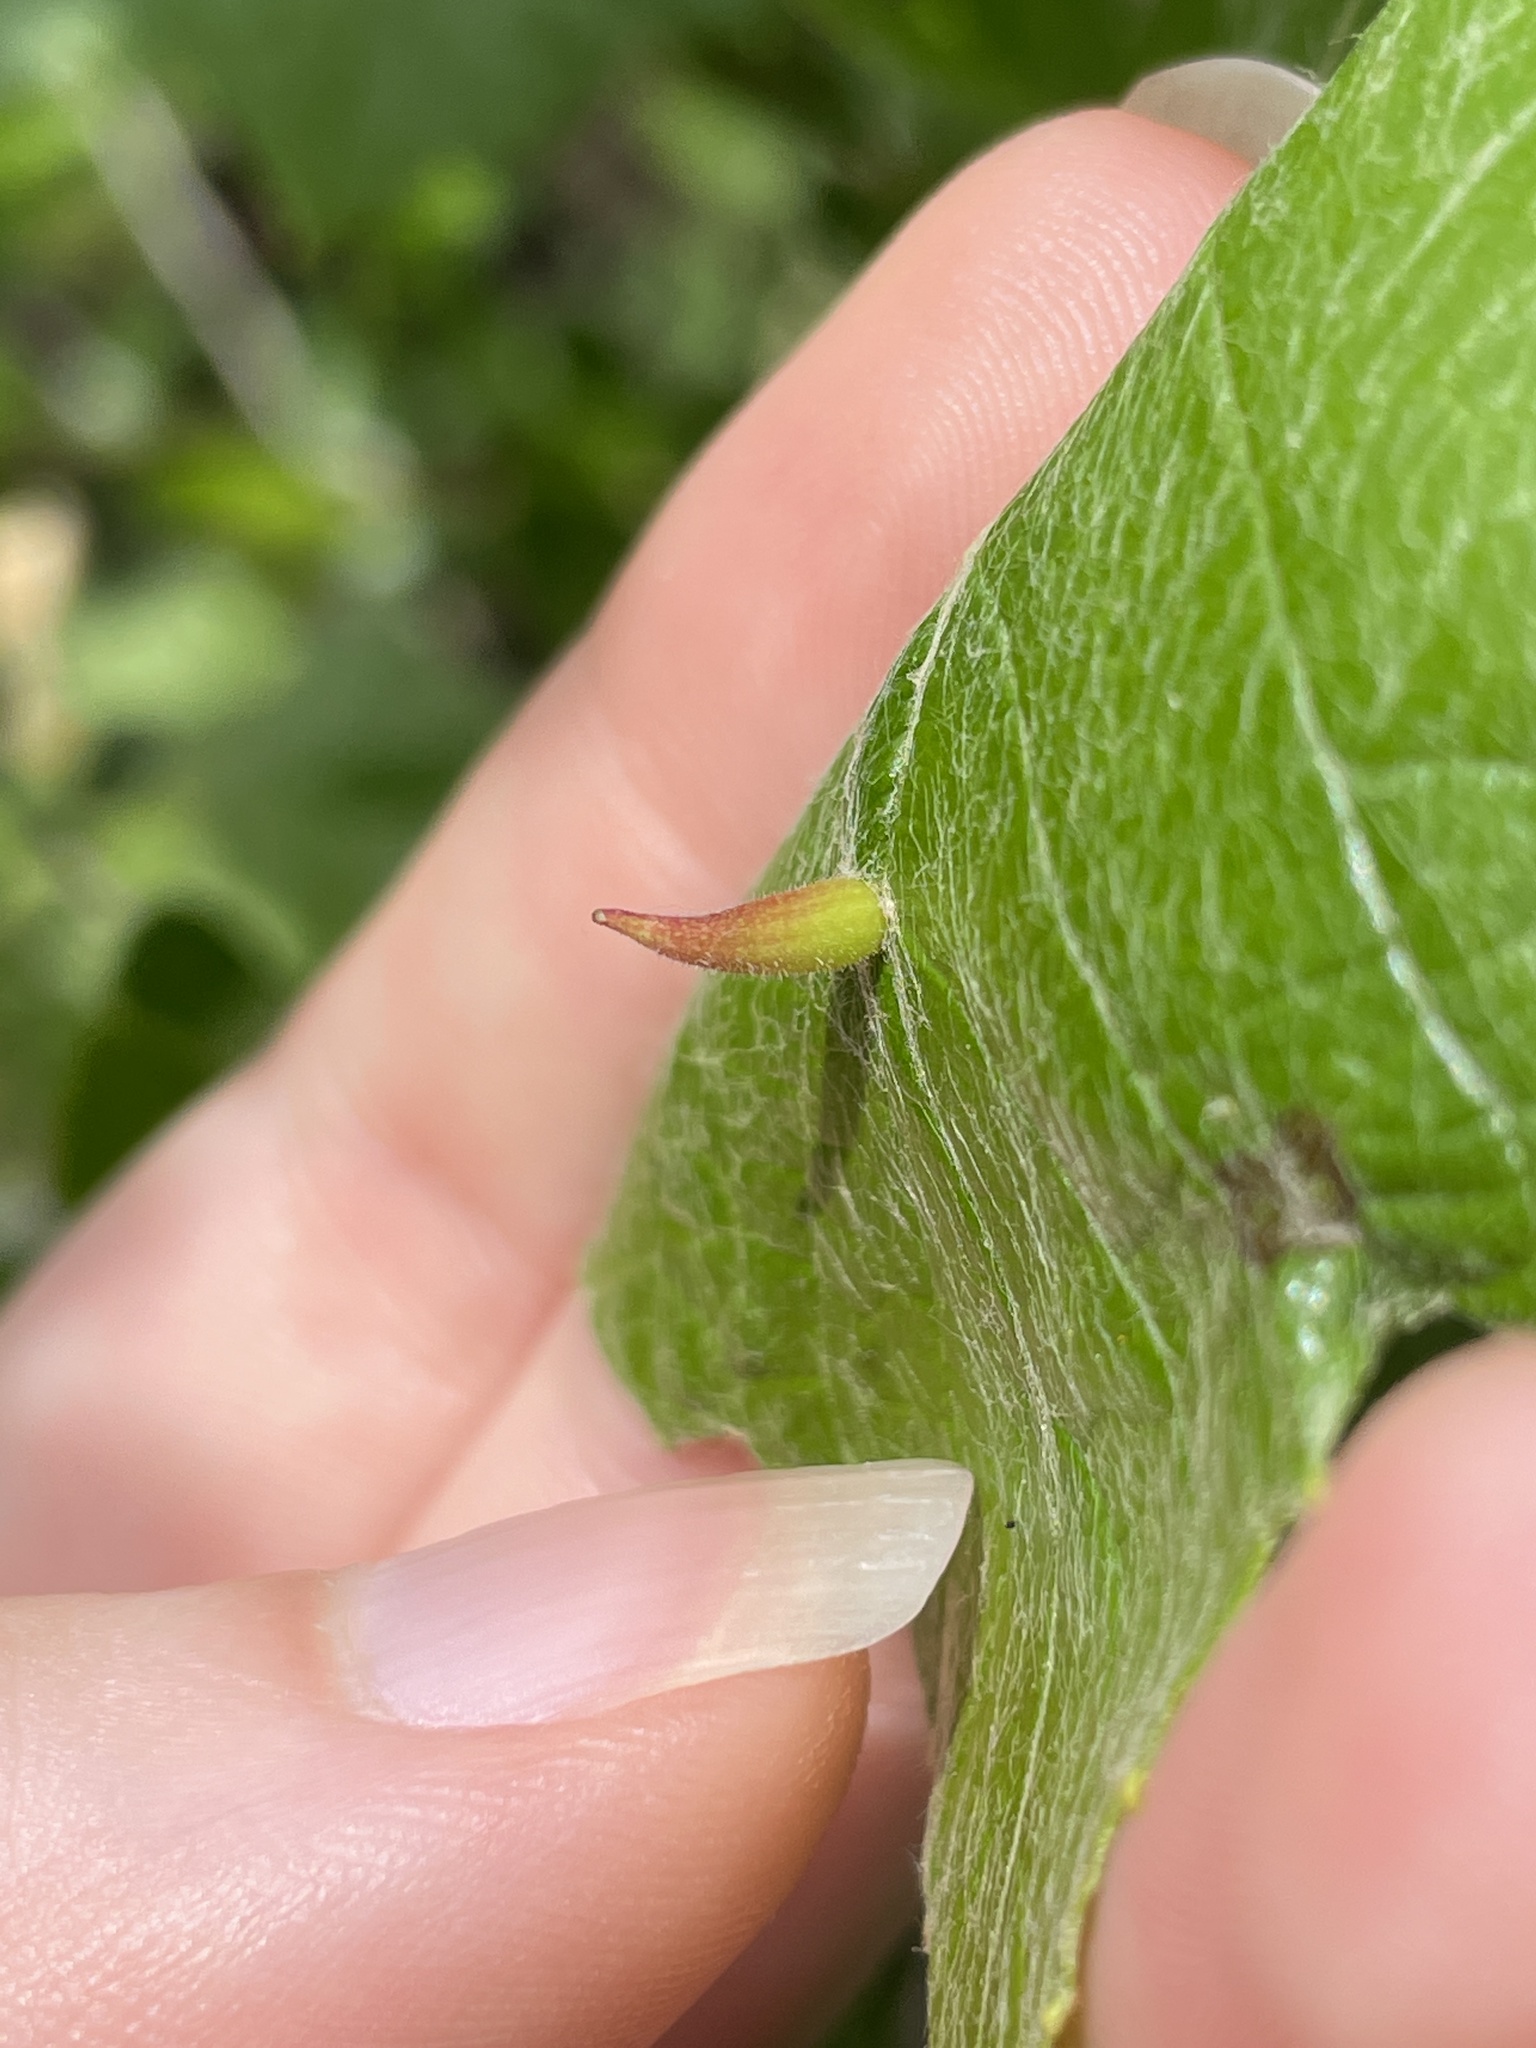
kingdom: Animalia
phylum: Arthropoda
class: Insecta
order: Diptera
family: Cecidomyiidae
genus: Ampelomyia
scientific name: Ampelomyia viticola
